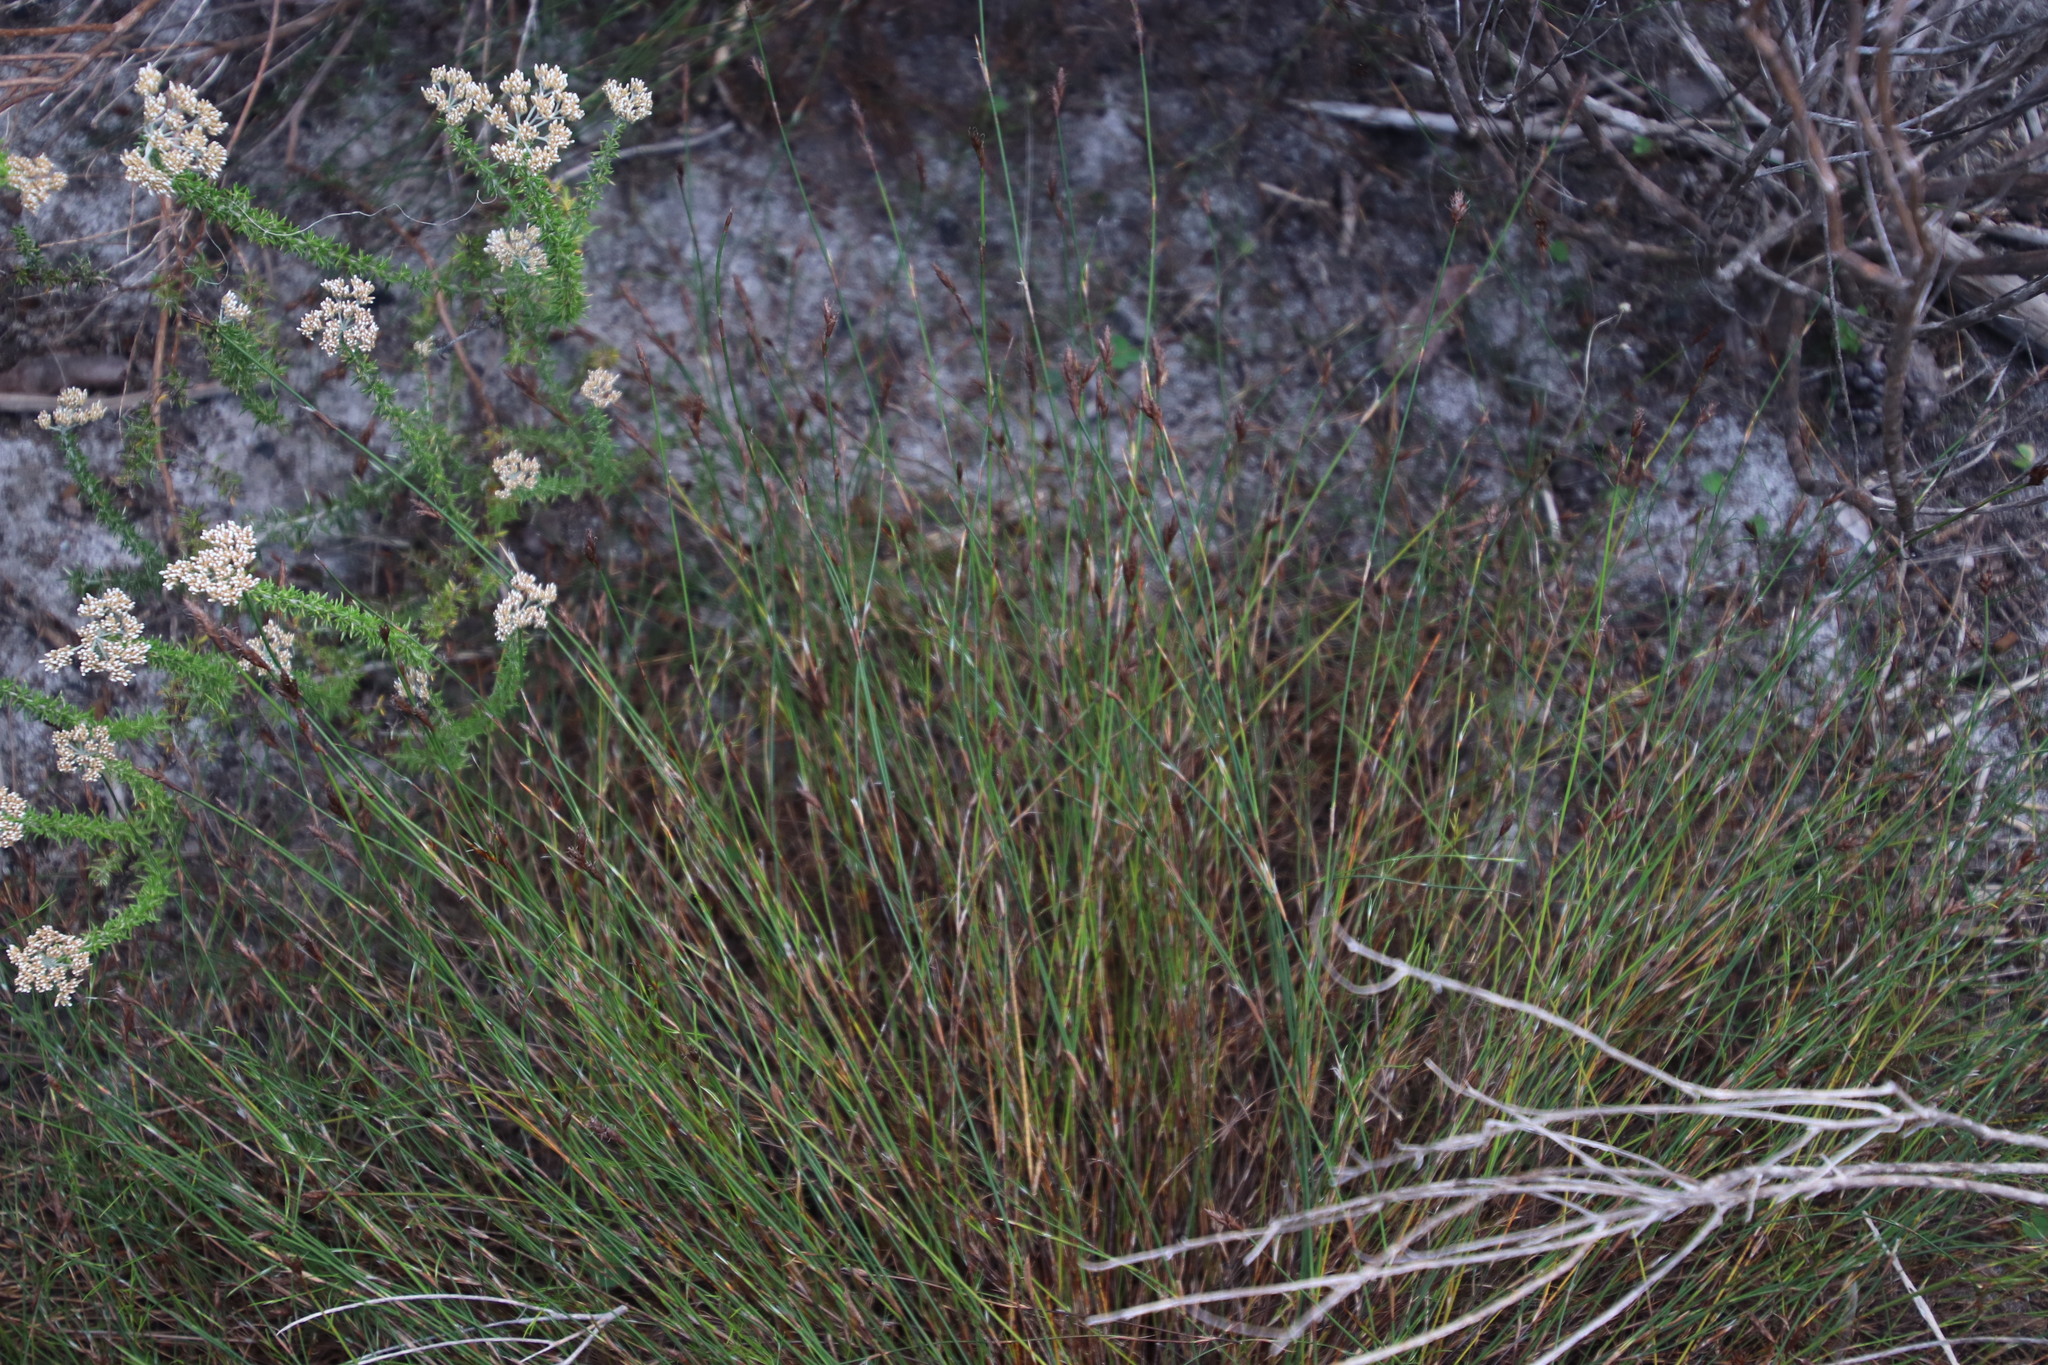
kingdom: Plantae
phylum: Tracheophyta
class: Liliopsida
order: Poales
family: Restionaceae
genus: Restio
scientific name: Restio capensis
